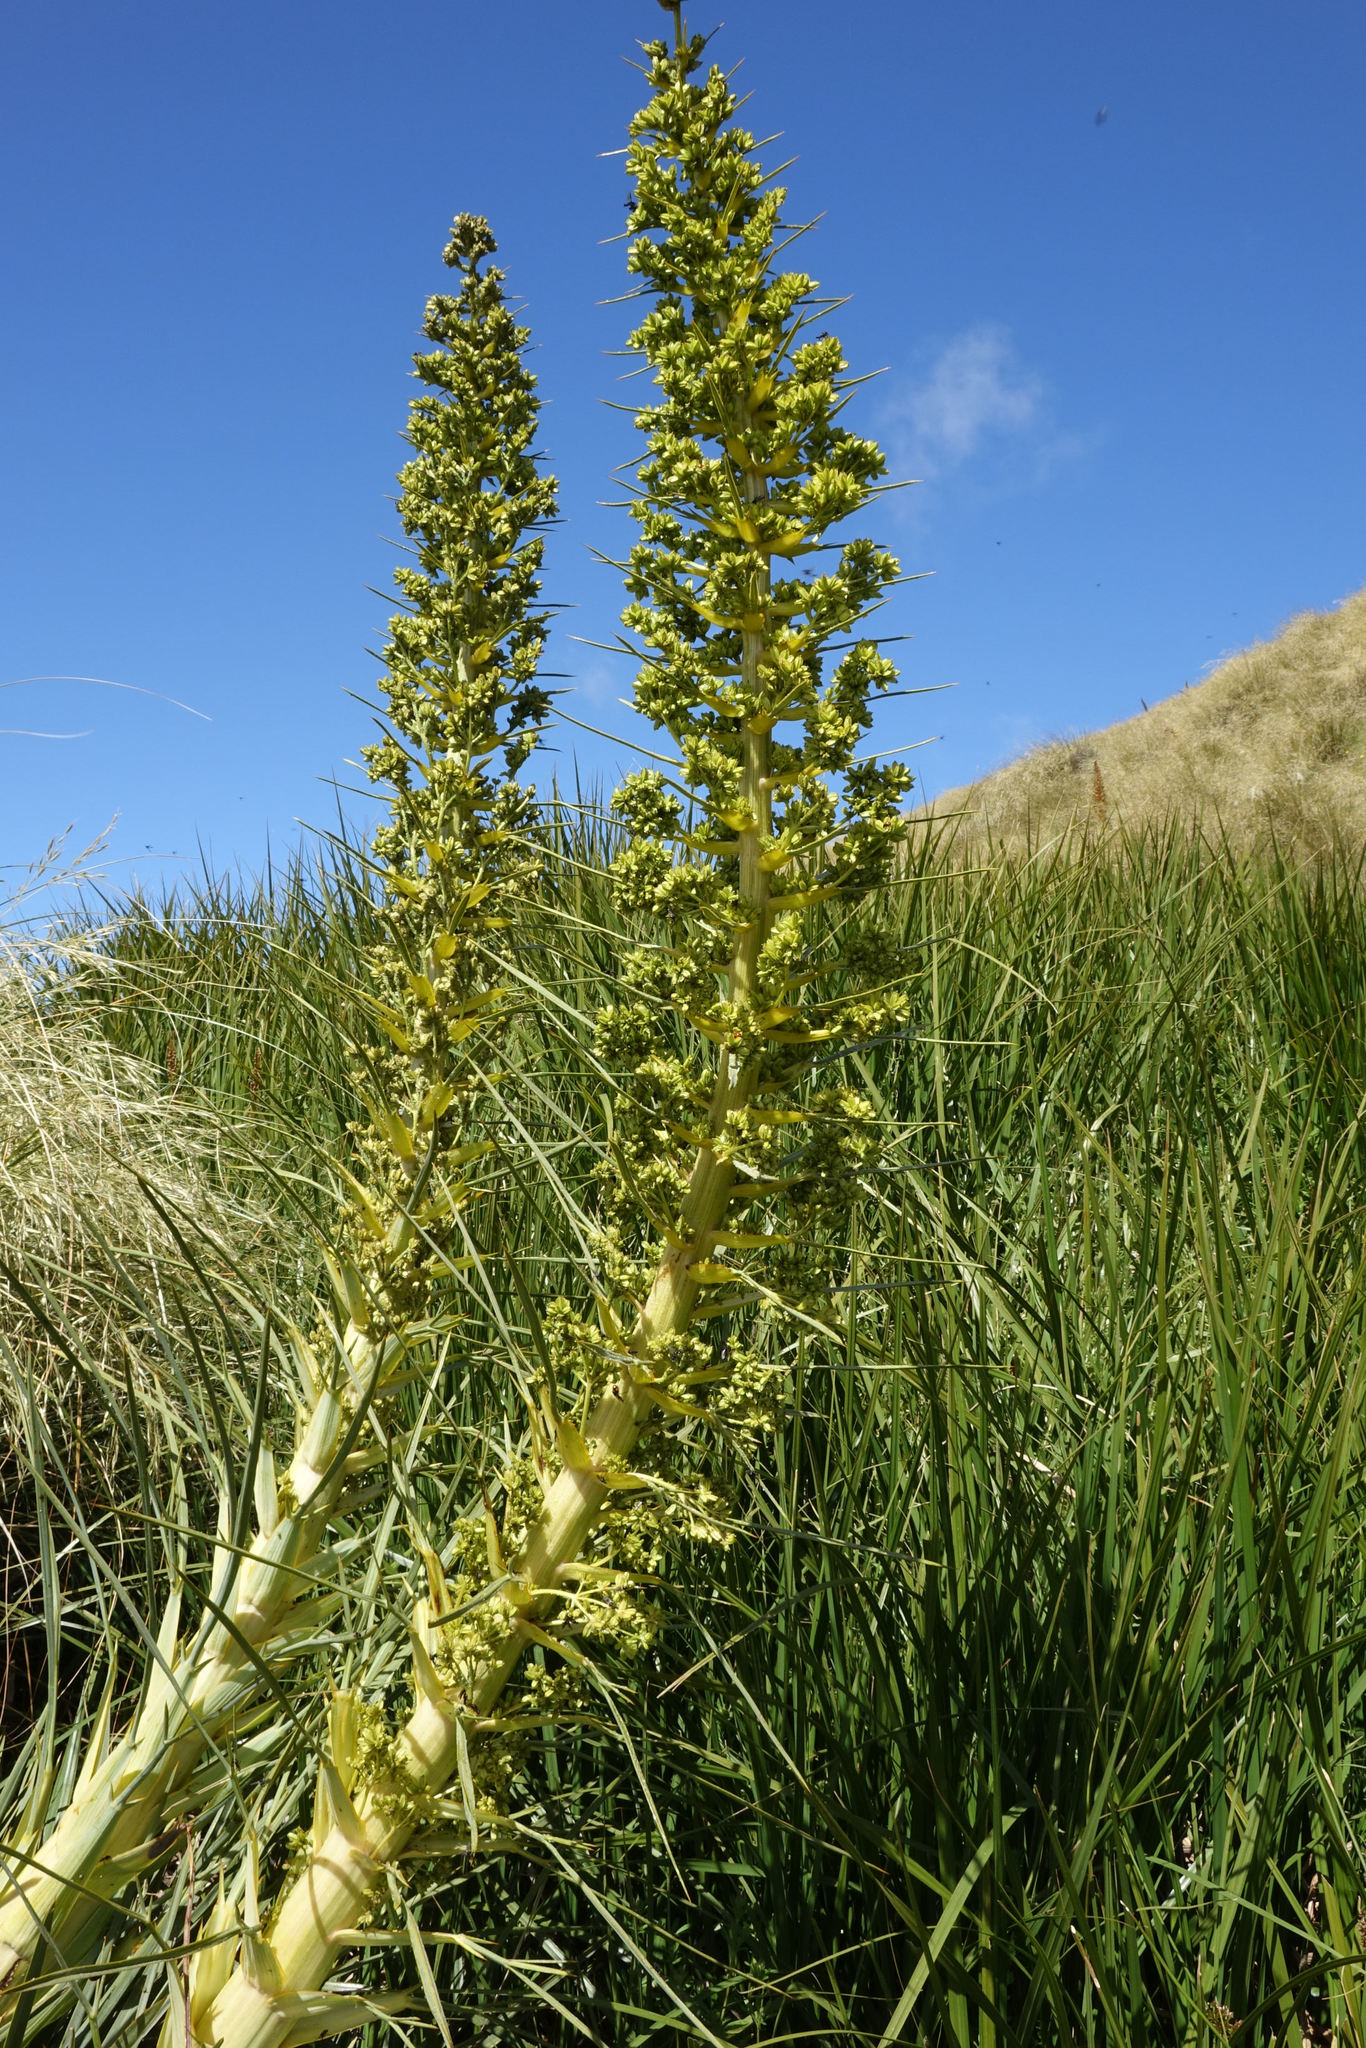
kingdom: Plantae
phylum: Tracheophyta
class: Magnoliopsida
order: Apiales
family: Apiaceae
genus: Aciphylla
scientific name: Aciphylla scott-thomsonii
